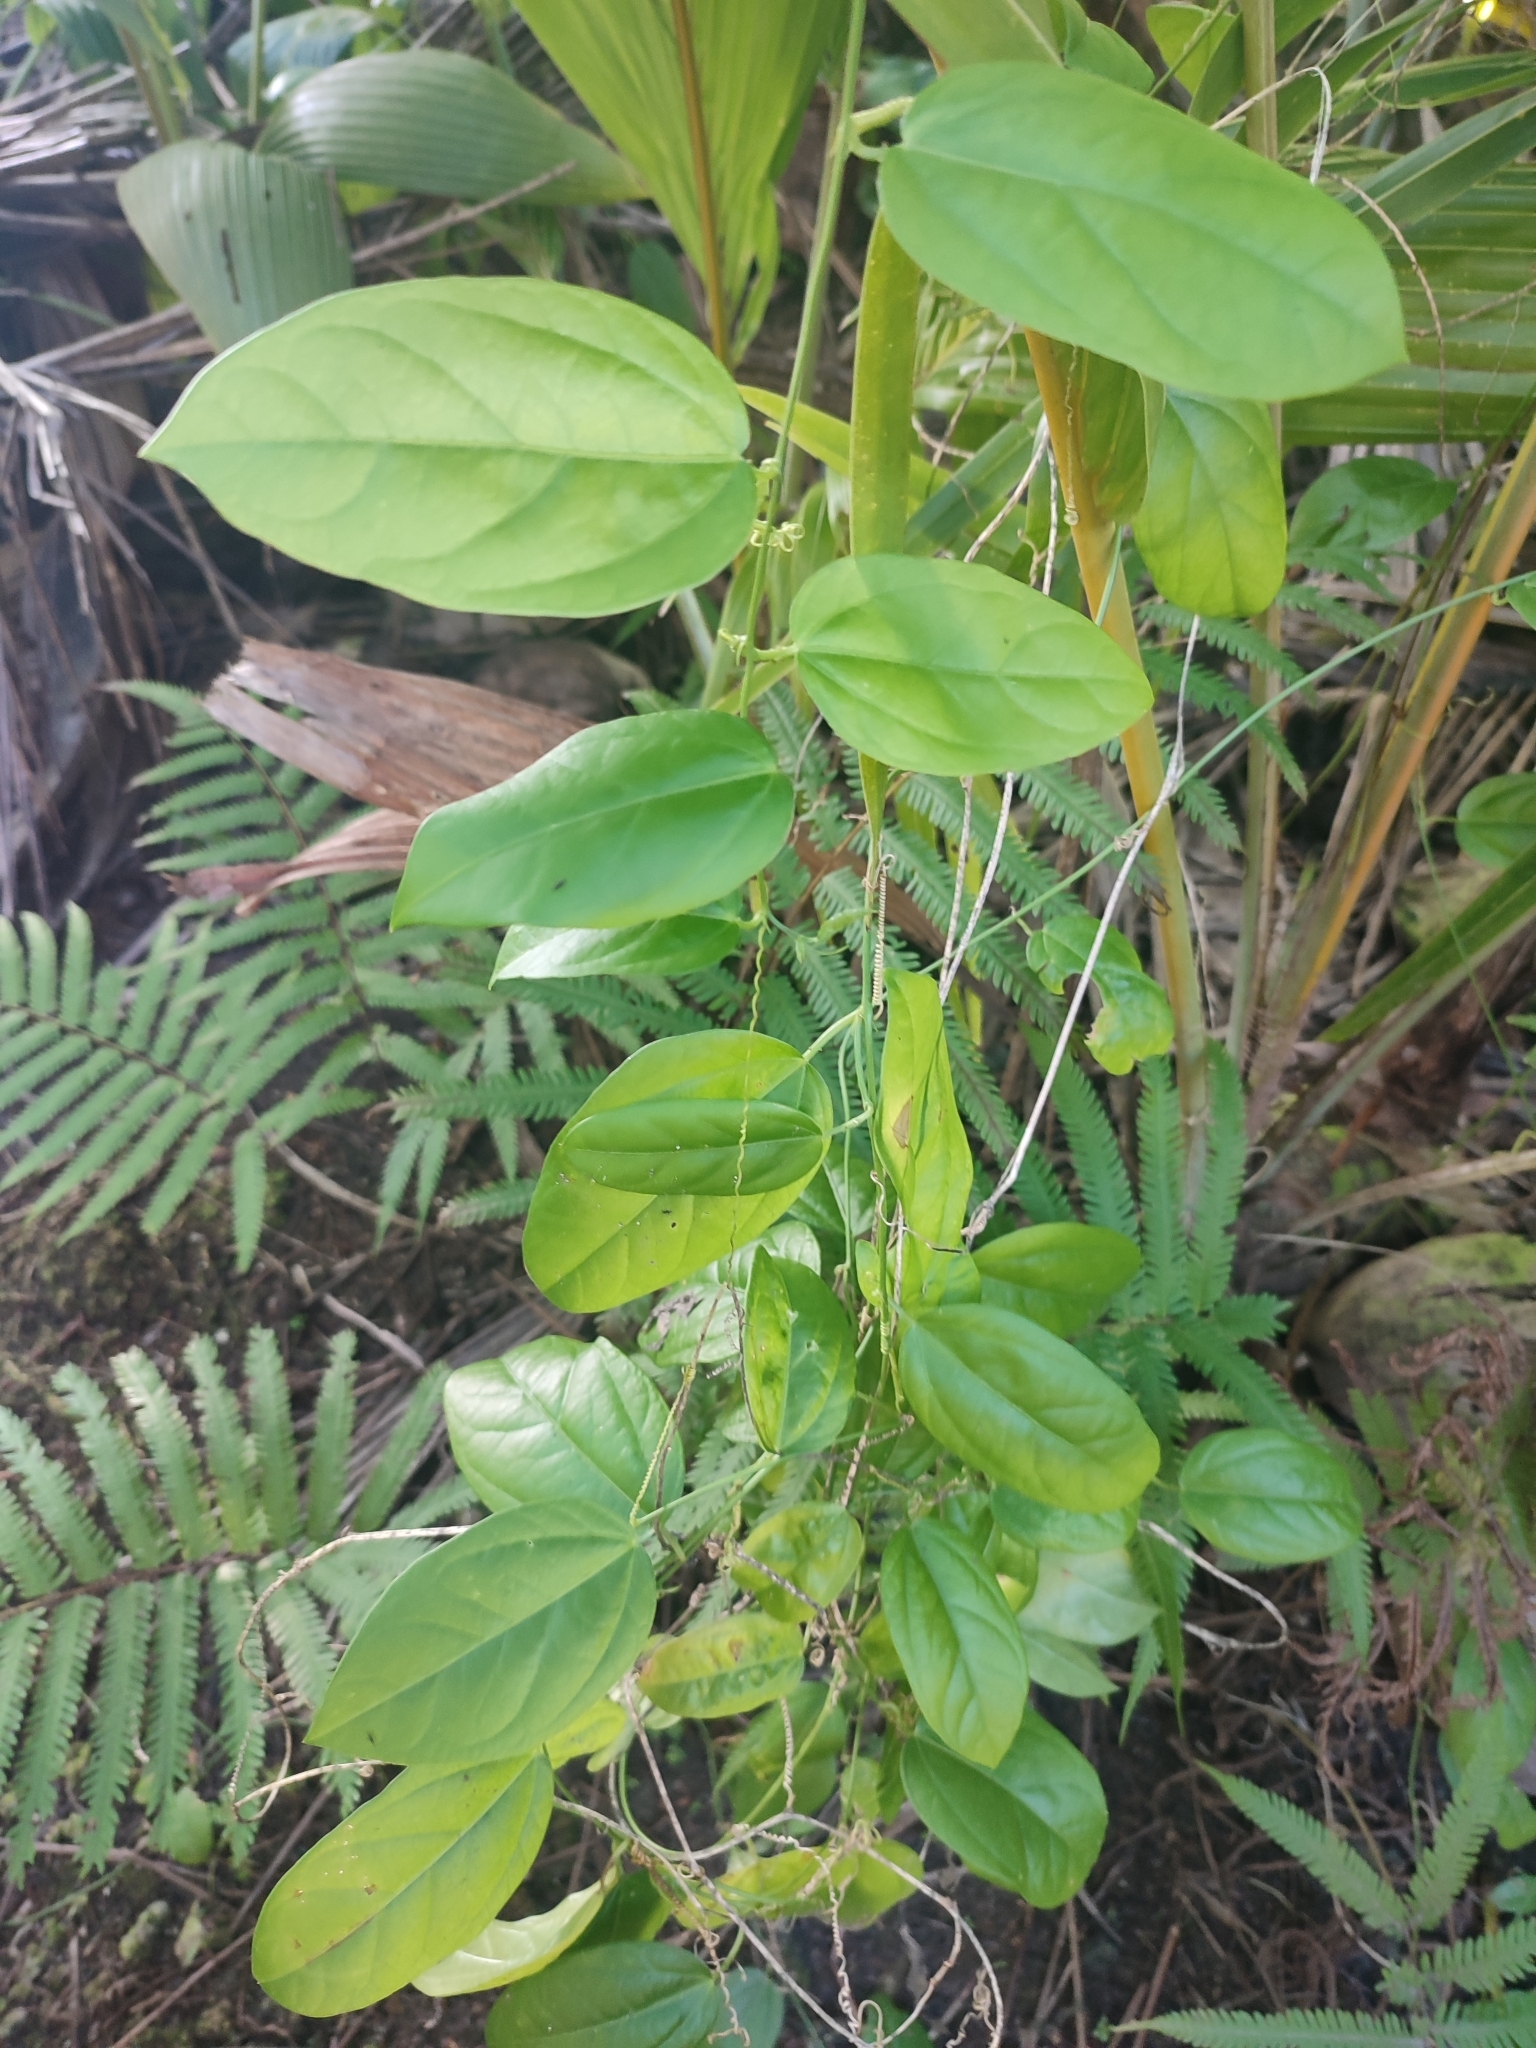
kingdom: Plantae
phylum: Tracheophyta
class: Magnoliopsida
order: Malpighiales
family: Passifloraceae
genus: Passiflora
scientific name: Passiflora pallida
